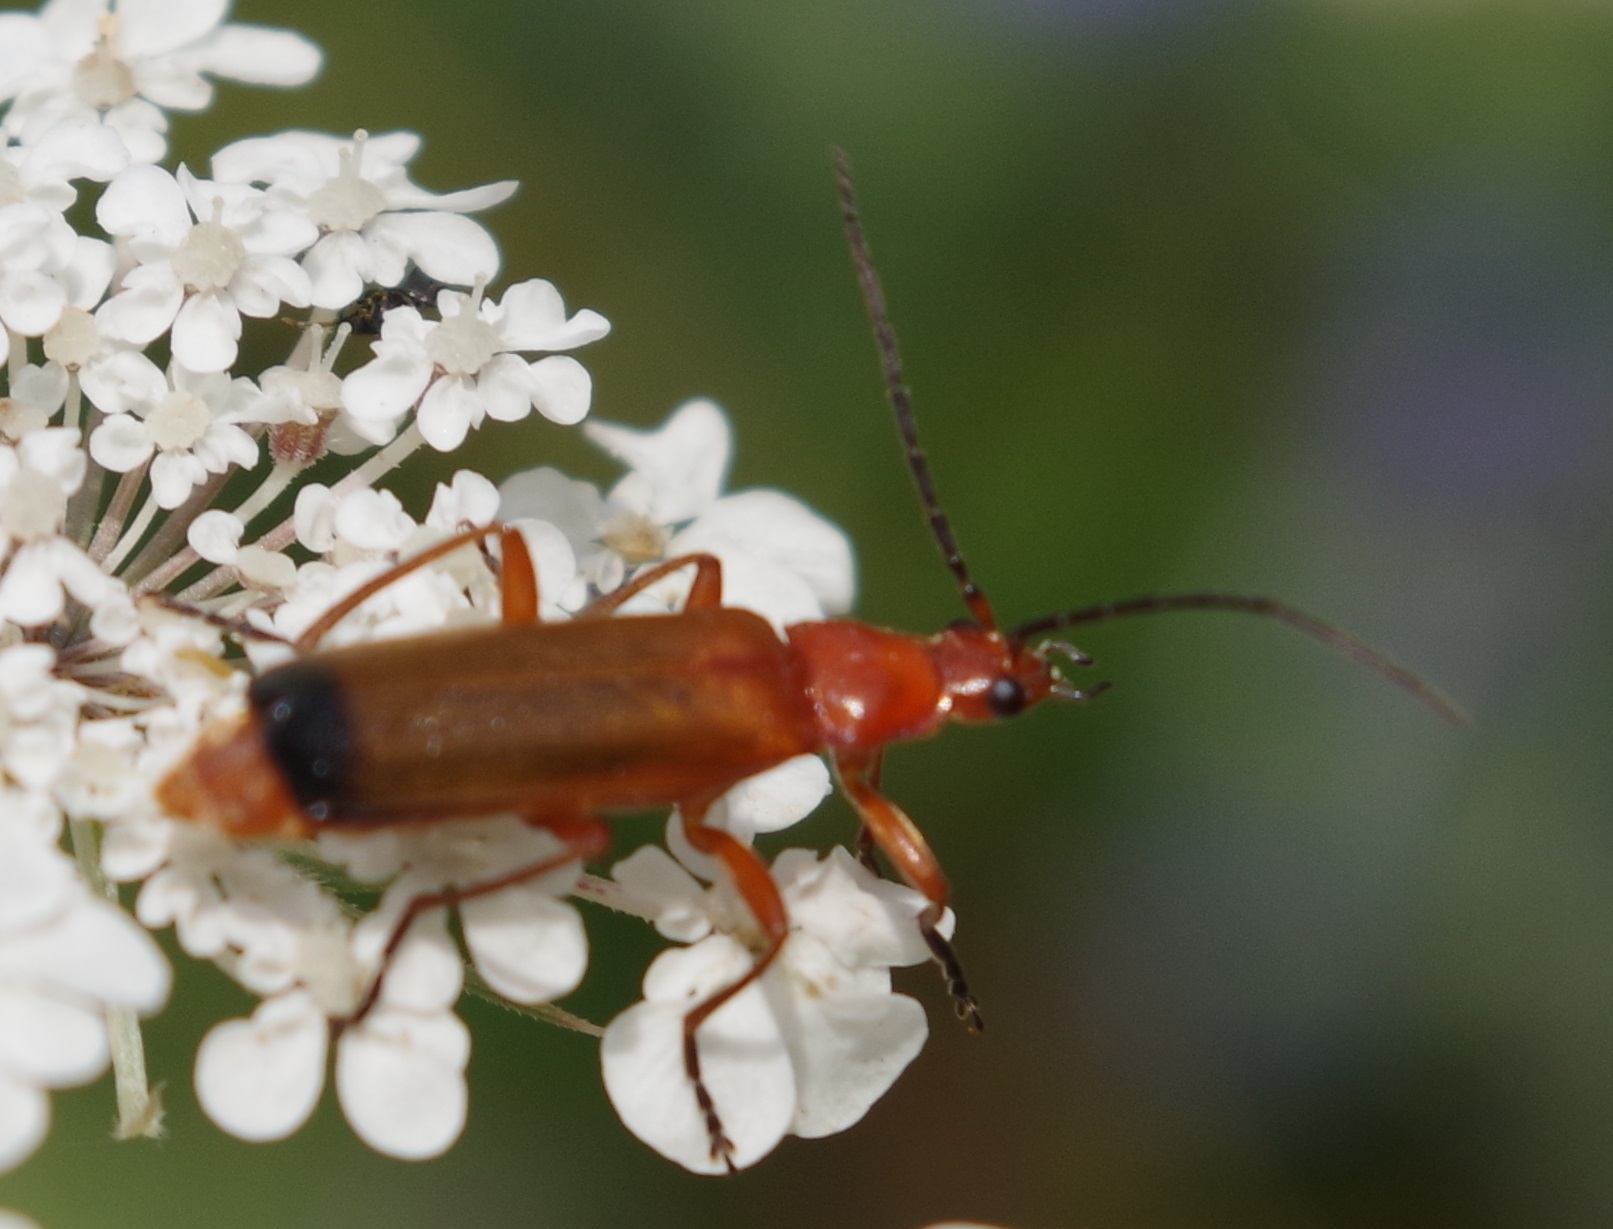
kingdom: Animalia
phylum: Arthropoda
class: Insecta
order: Coleoptera
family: Cantharidae
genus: Rhagonycha
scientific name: Rhagonycha fulva
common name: Common red soldier beetle
